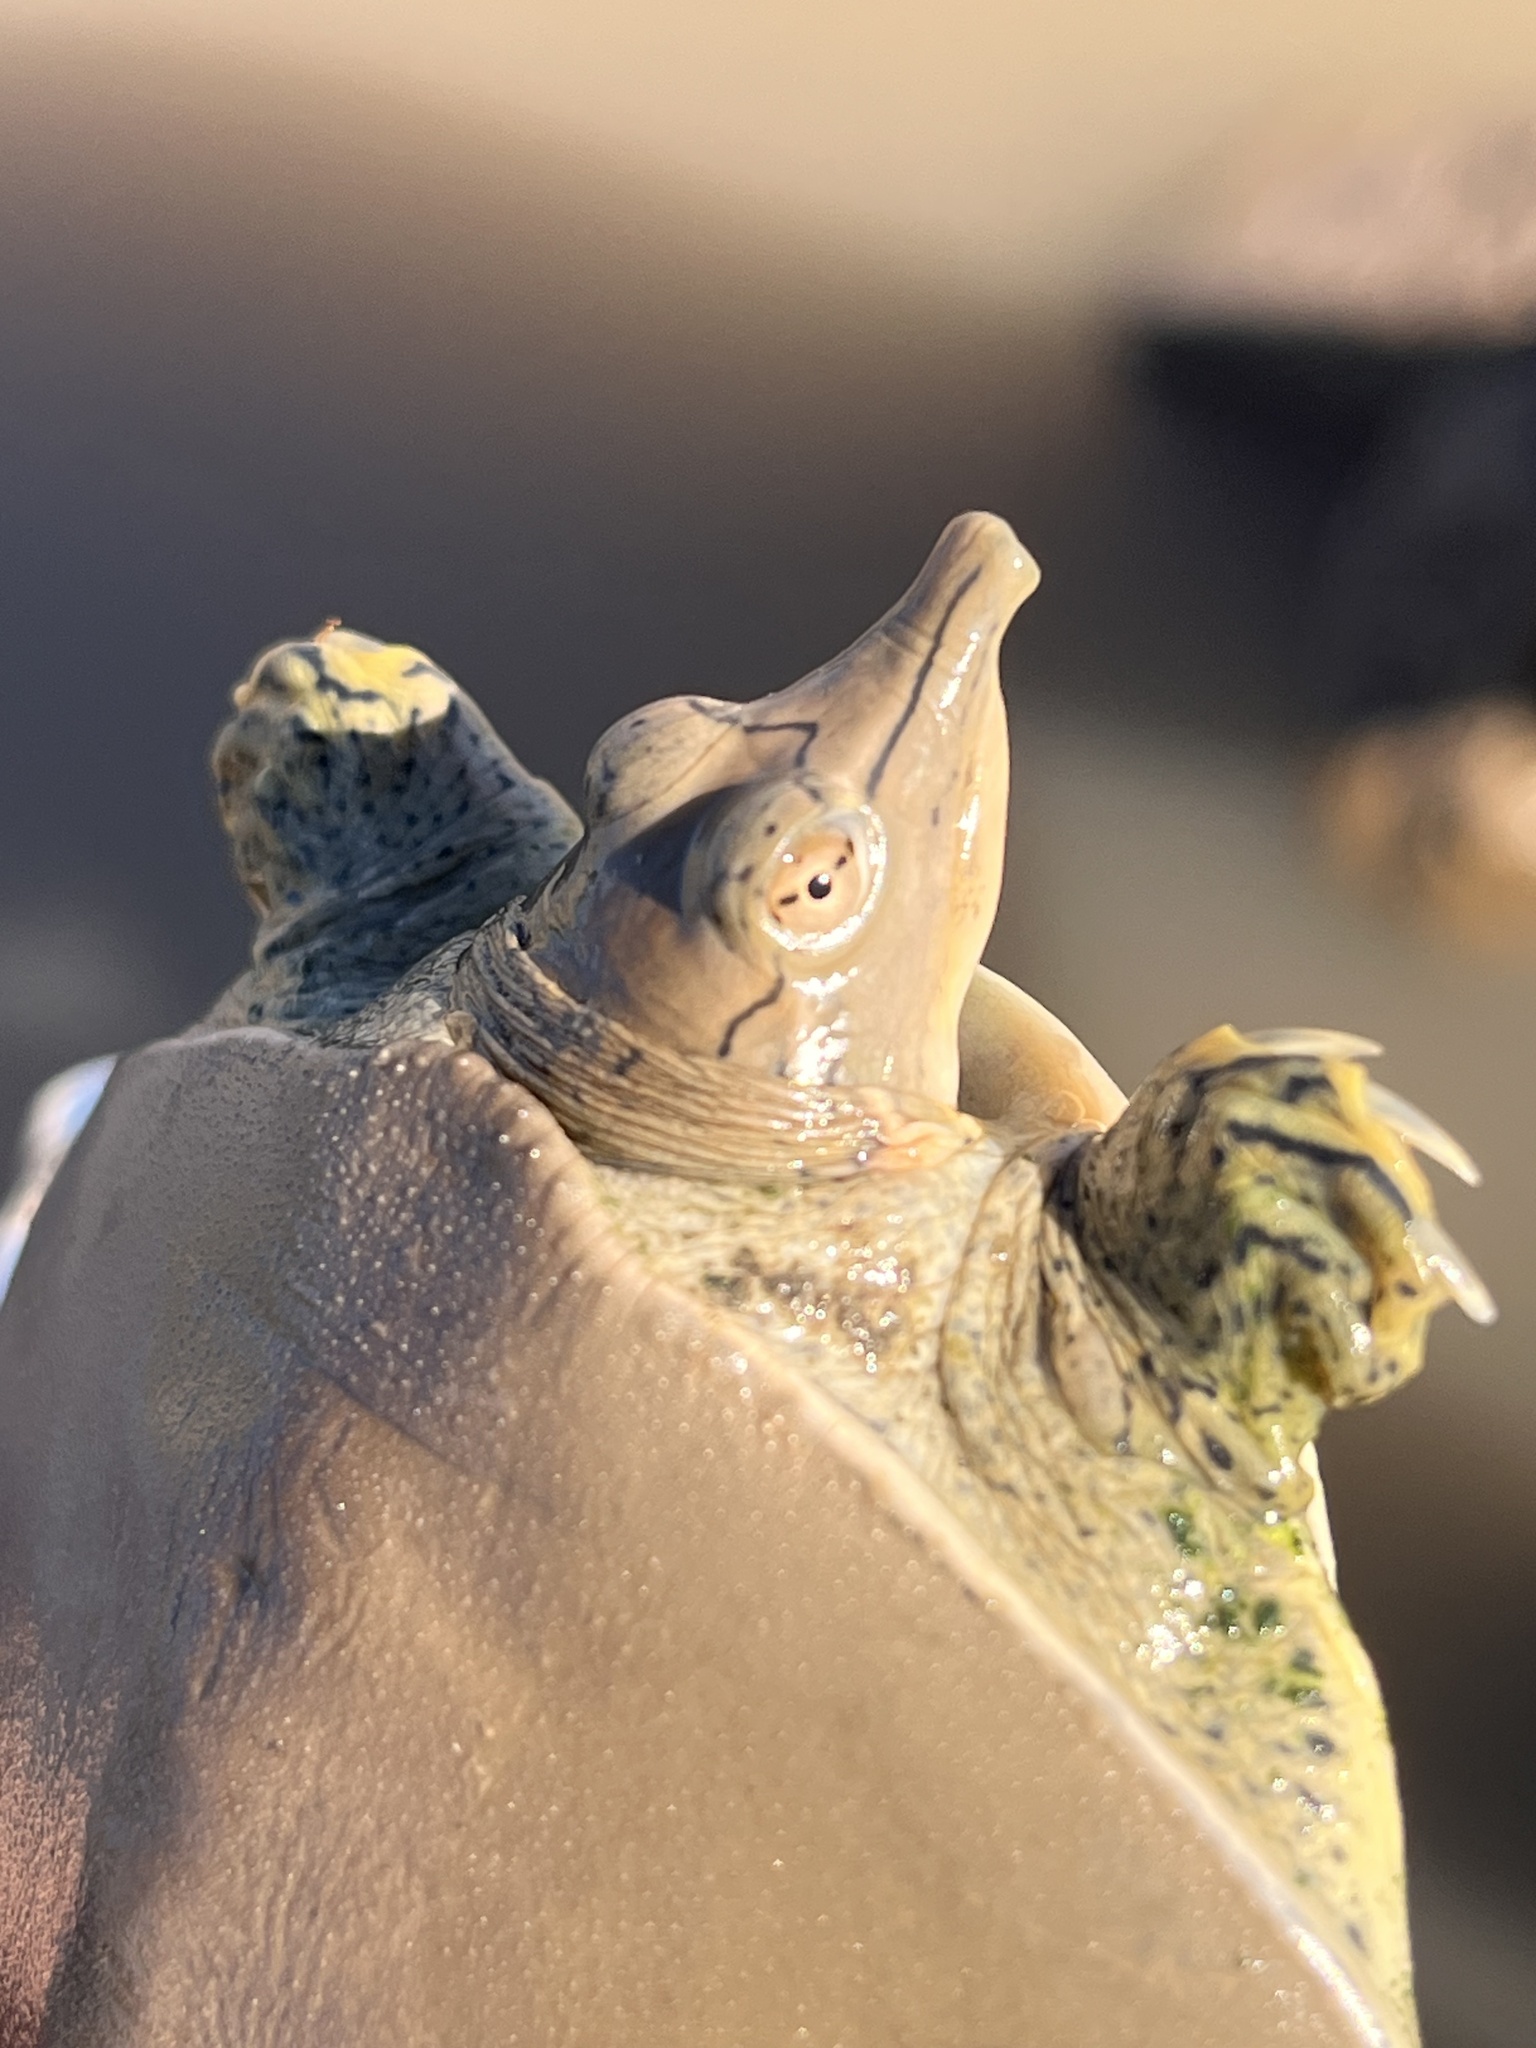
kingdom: Animalia
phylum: Chordata
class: Testudines
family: Trionychidae
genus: Apalone
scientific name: Apalone spinifera
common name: Spiny softshell turtle
